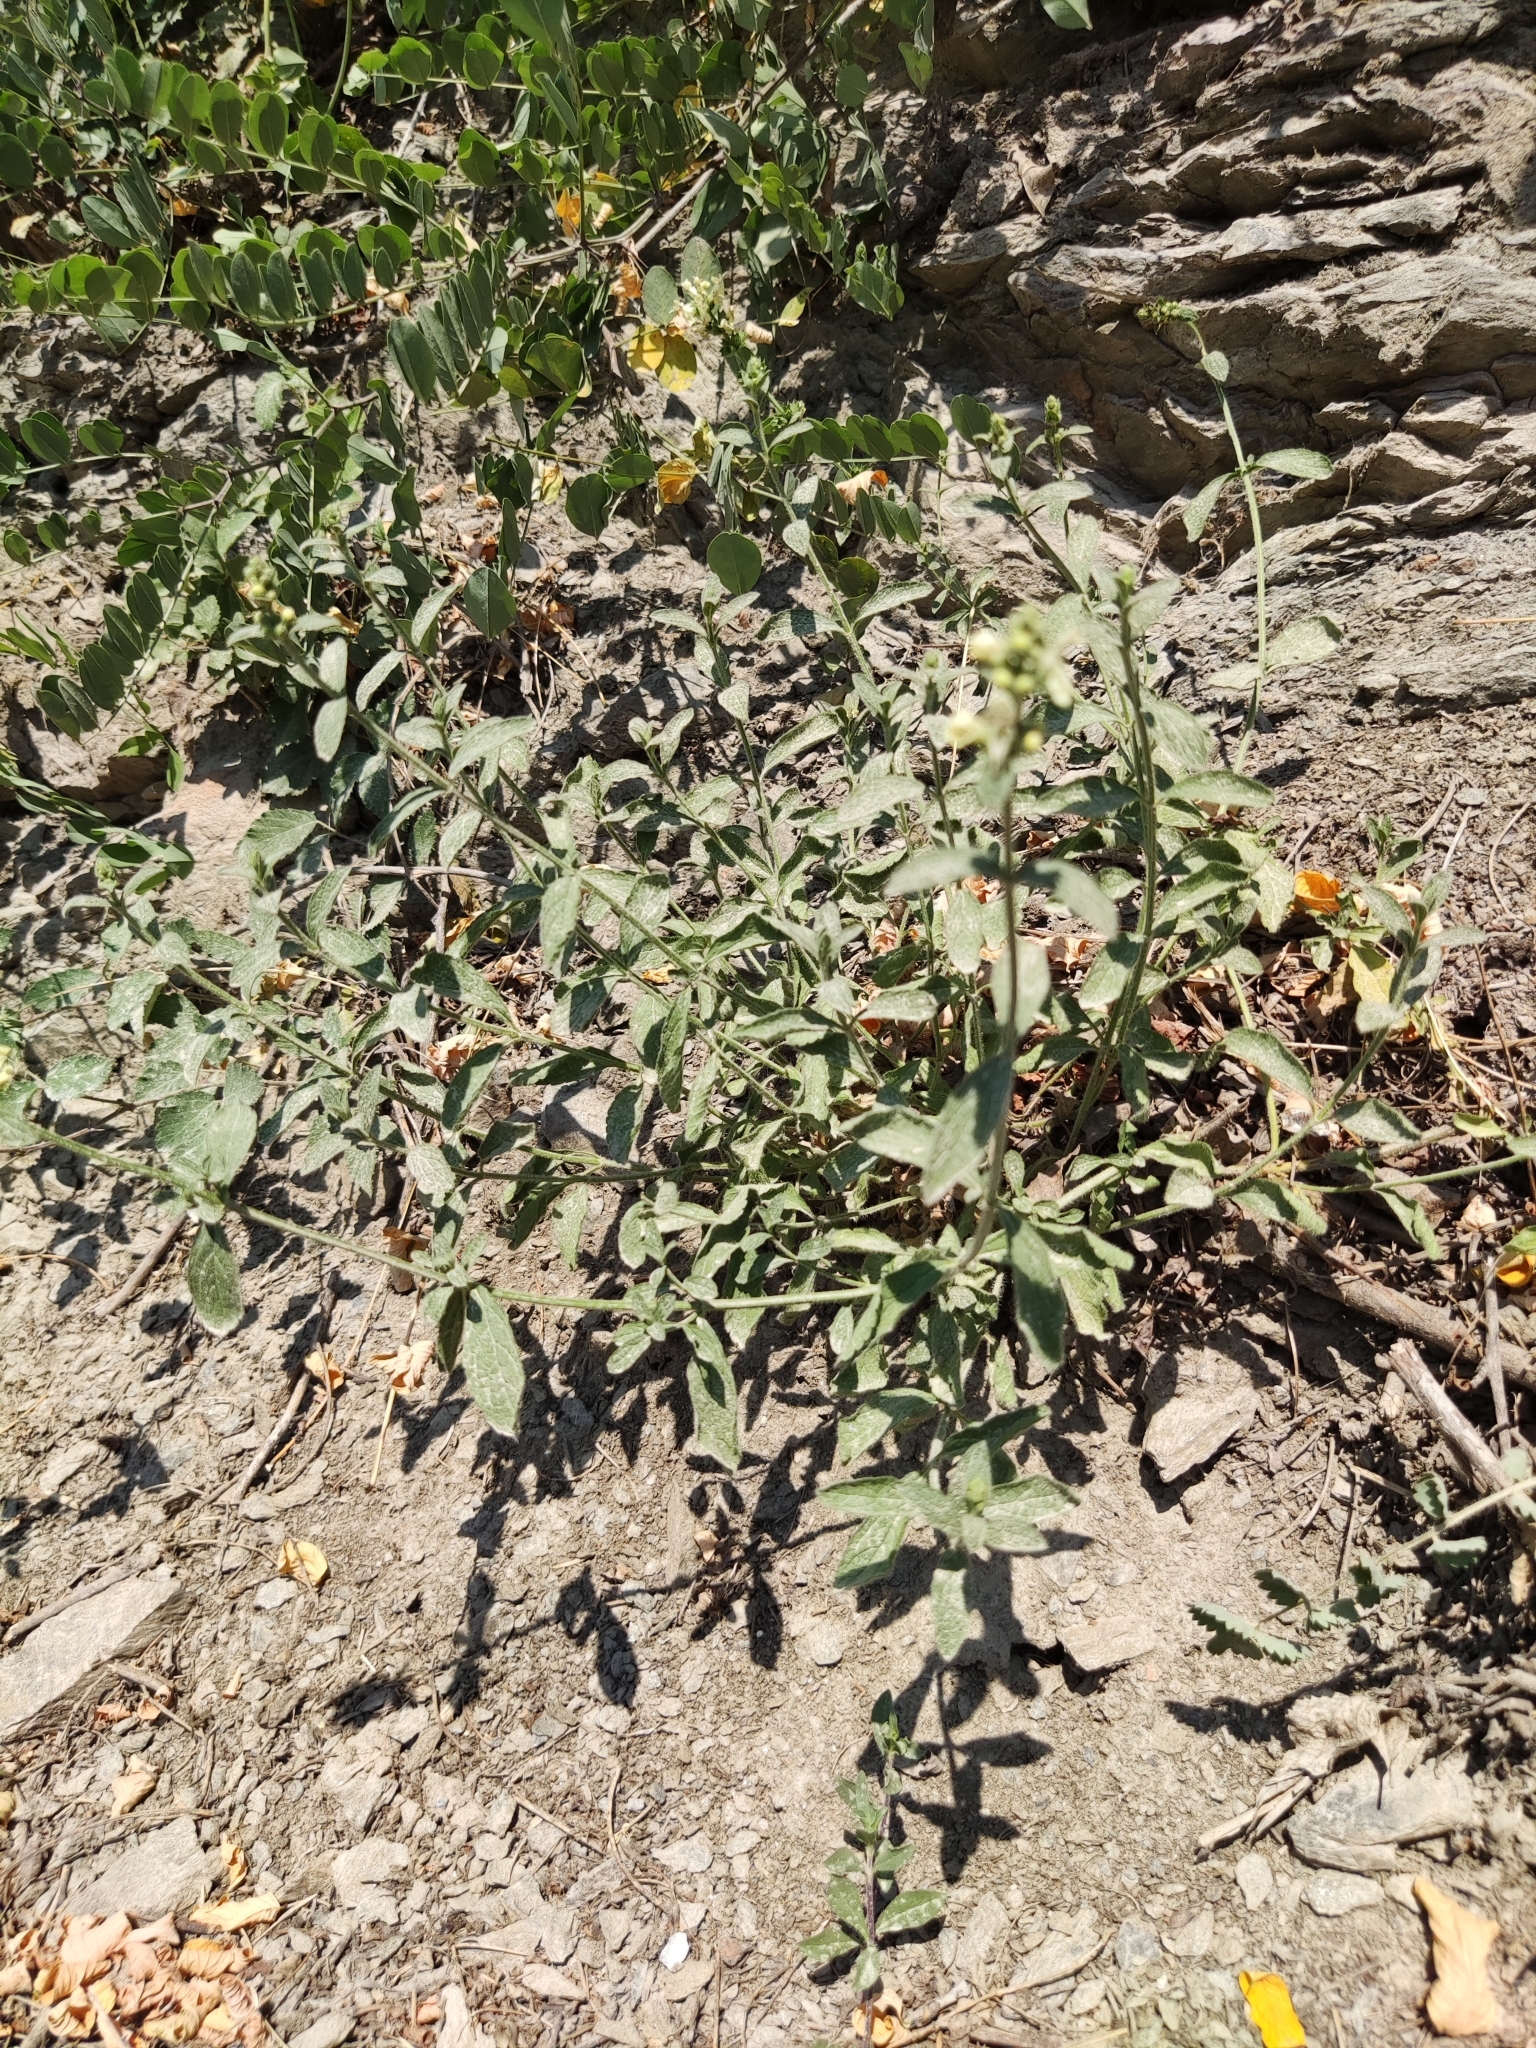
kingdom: Plantae
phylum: Tracheophyta
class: Magnoliopsida
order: Lamiales
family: Lamiaceae
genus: Stachys
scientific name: Stachys recta
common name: Perennial yellow-woundwort
